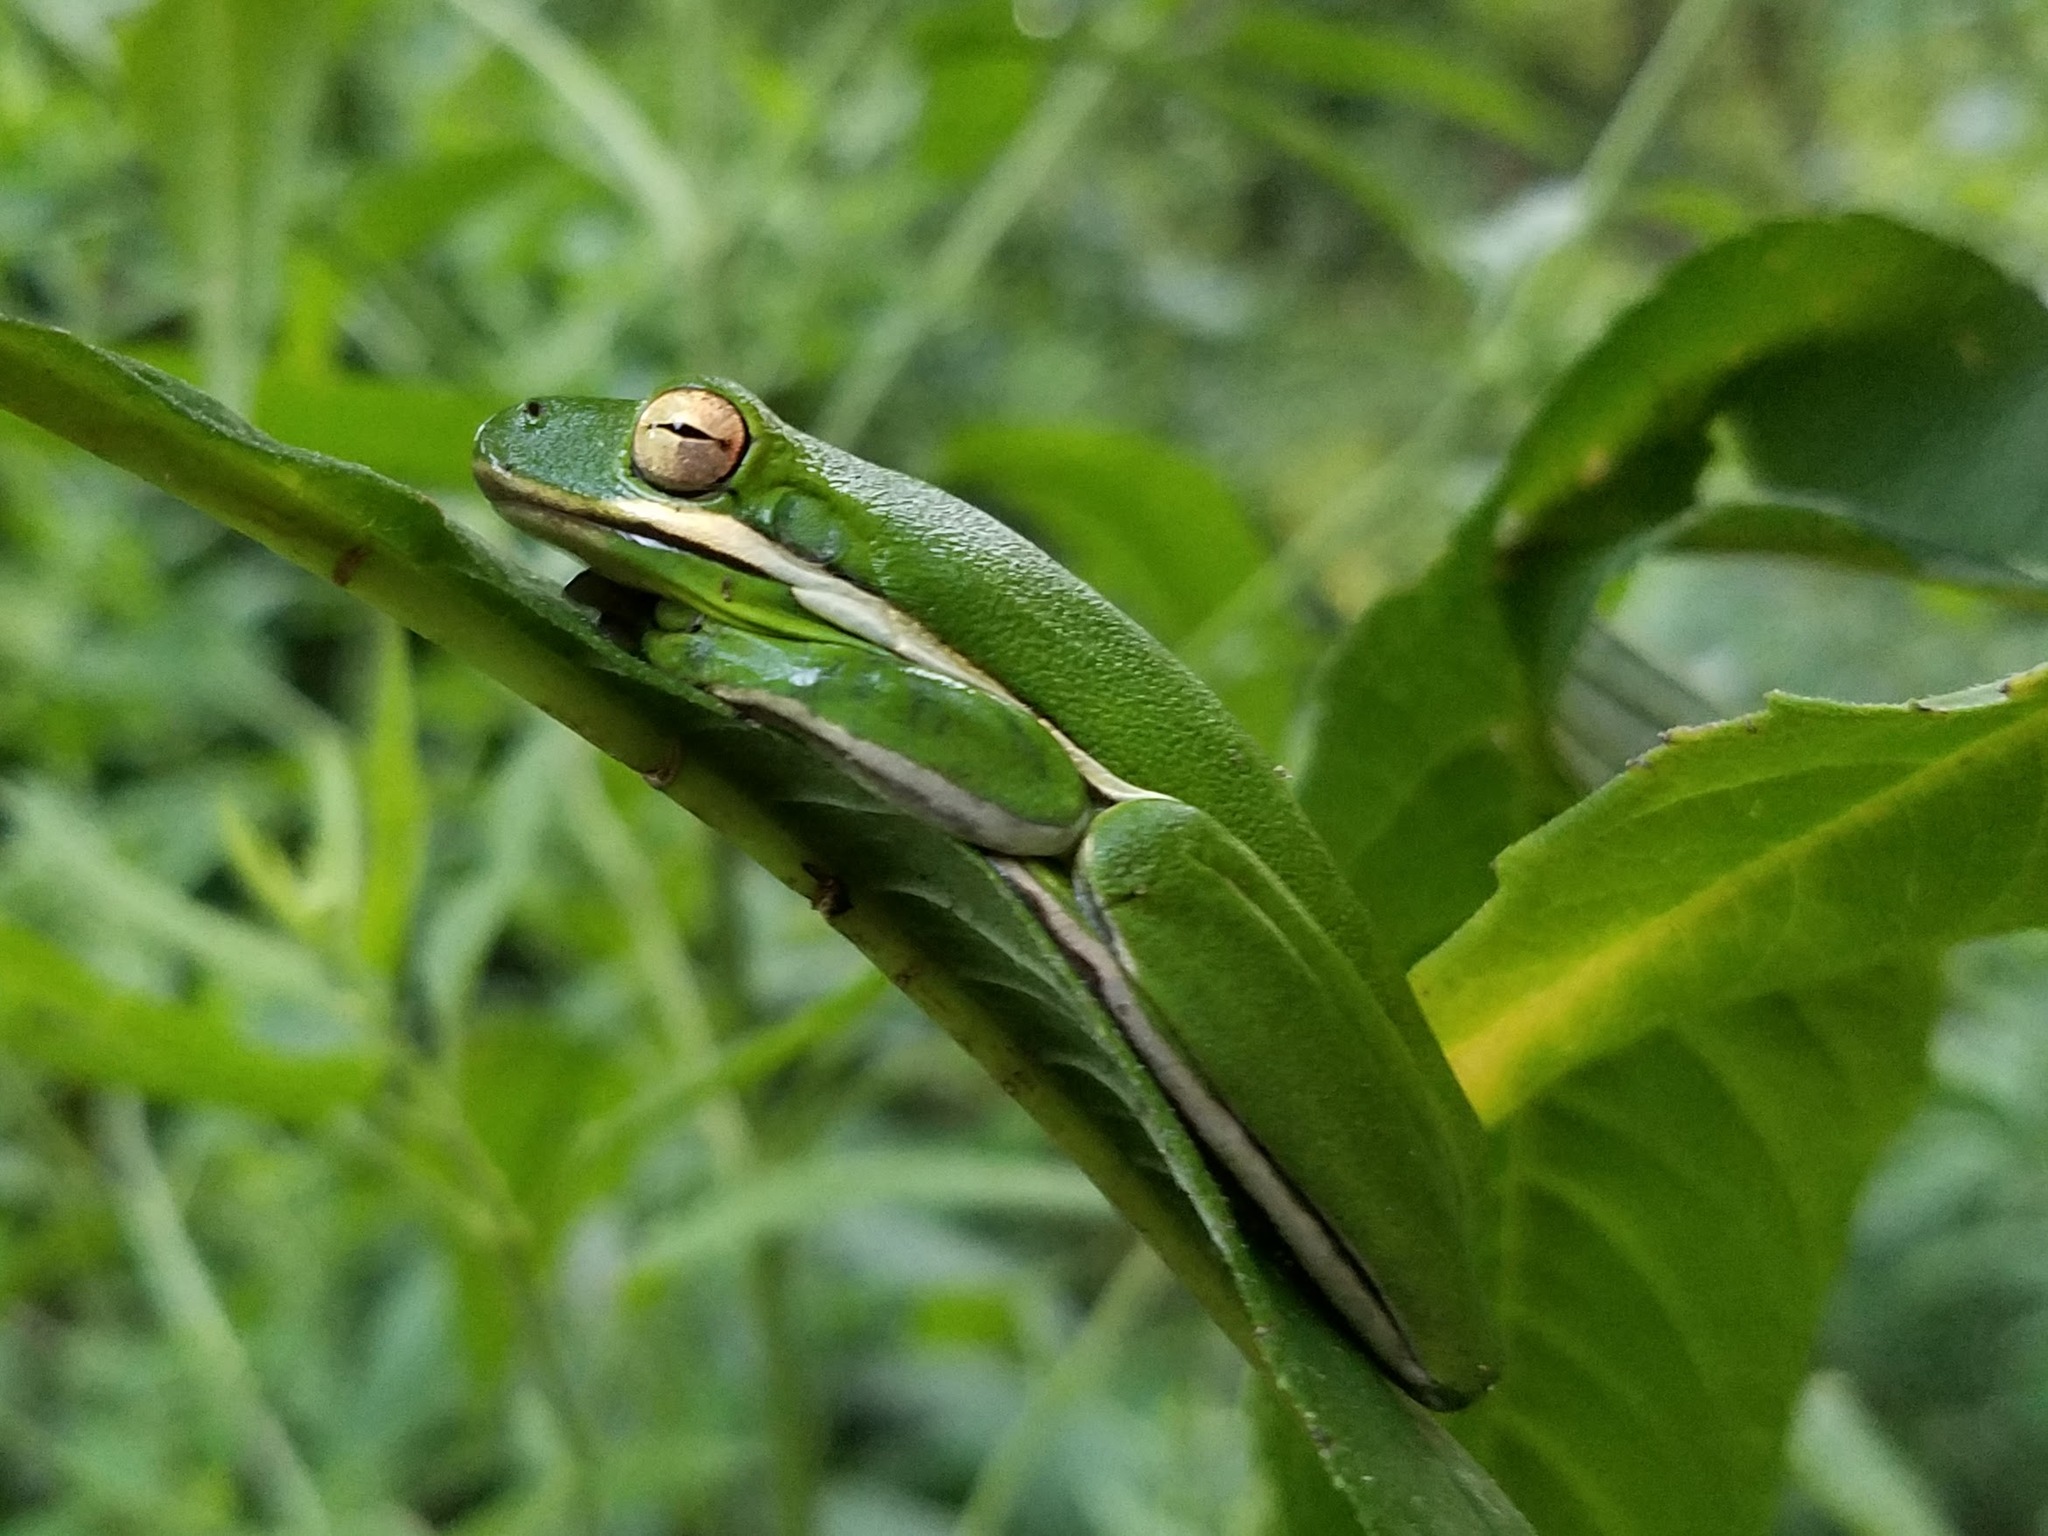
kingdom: Animalia
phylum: Chordata
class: Amphibia
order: Anura
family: Hylidae
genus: Dryophytes
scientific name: Dryophytes cinereus
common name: Green treefrog
